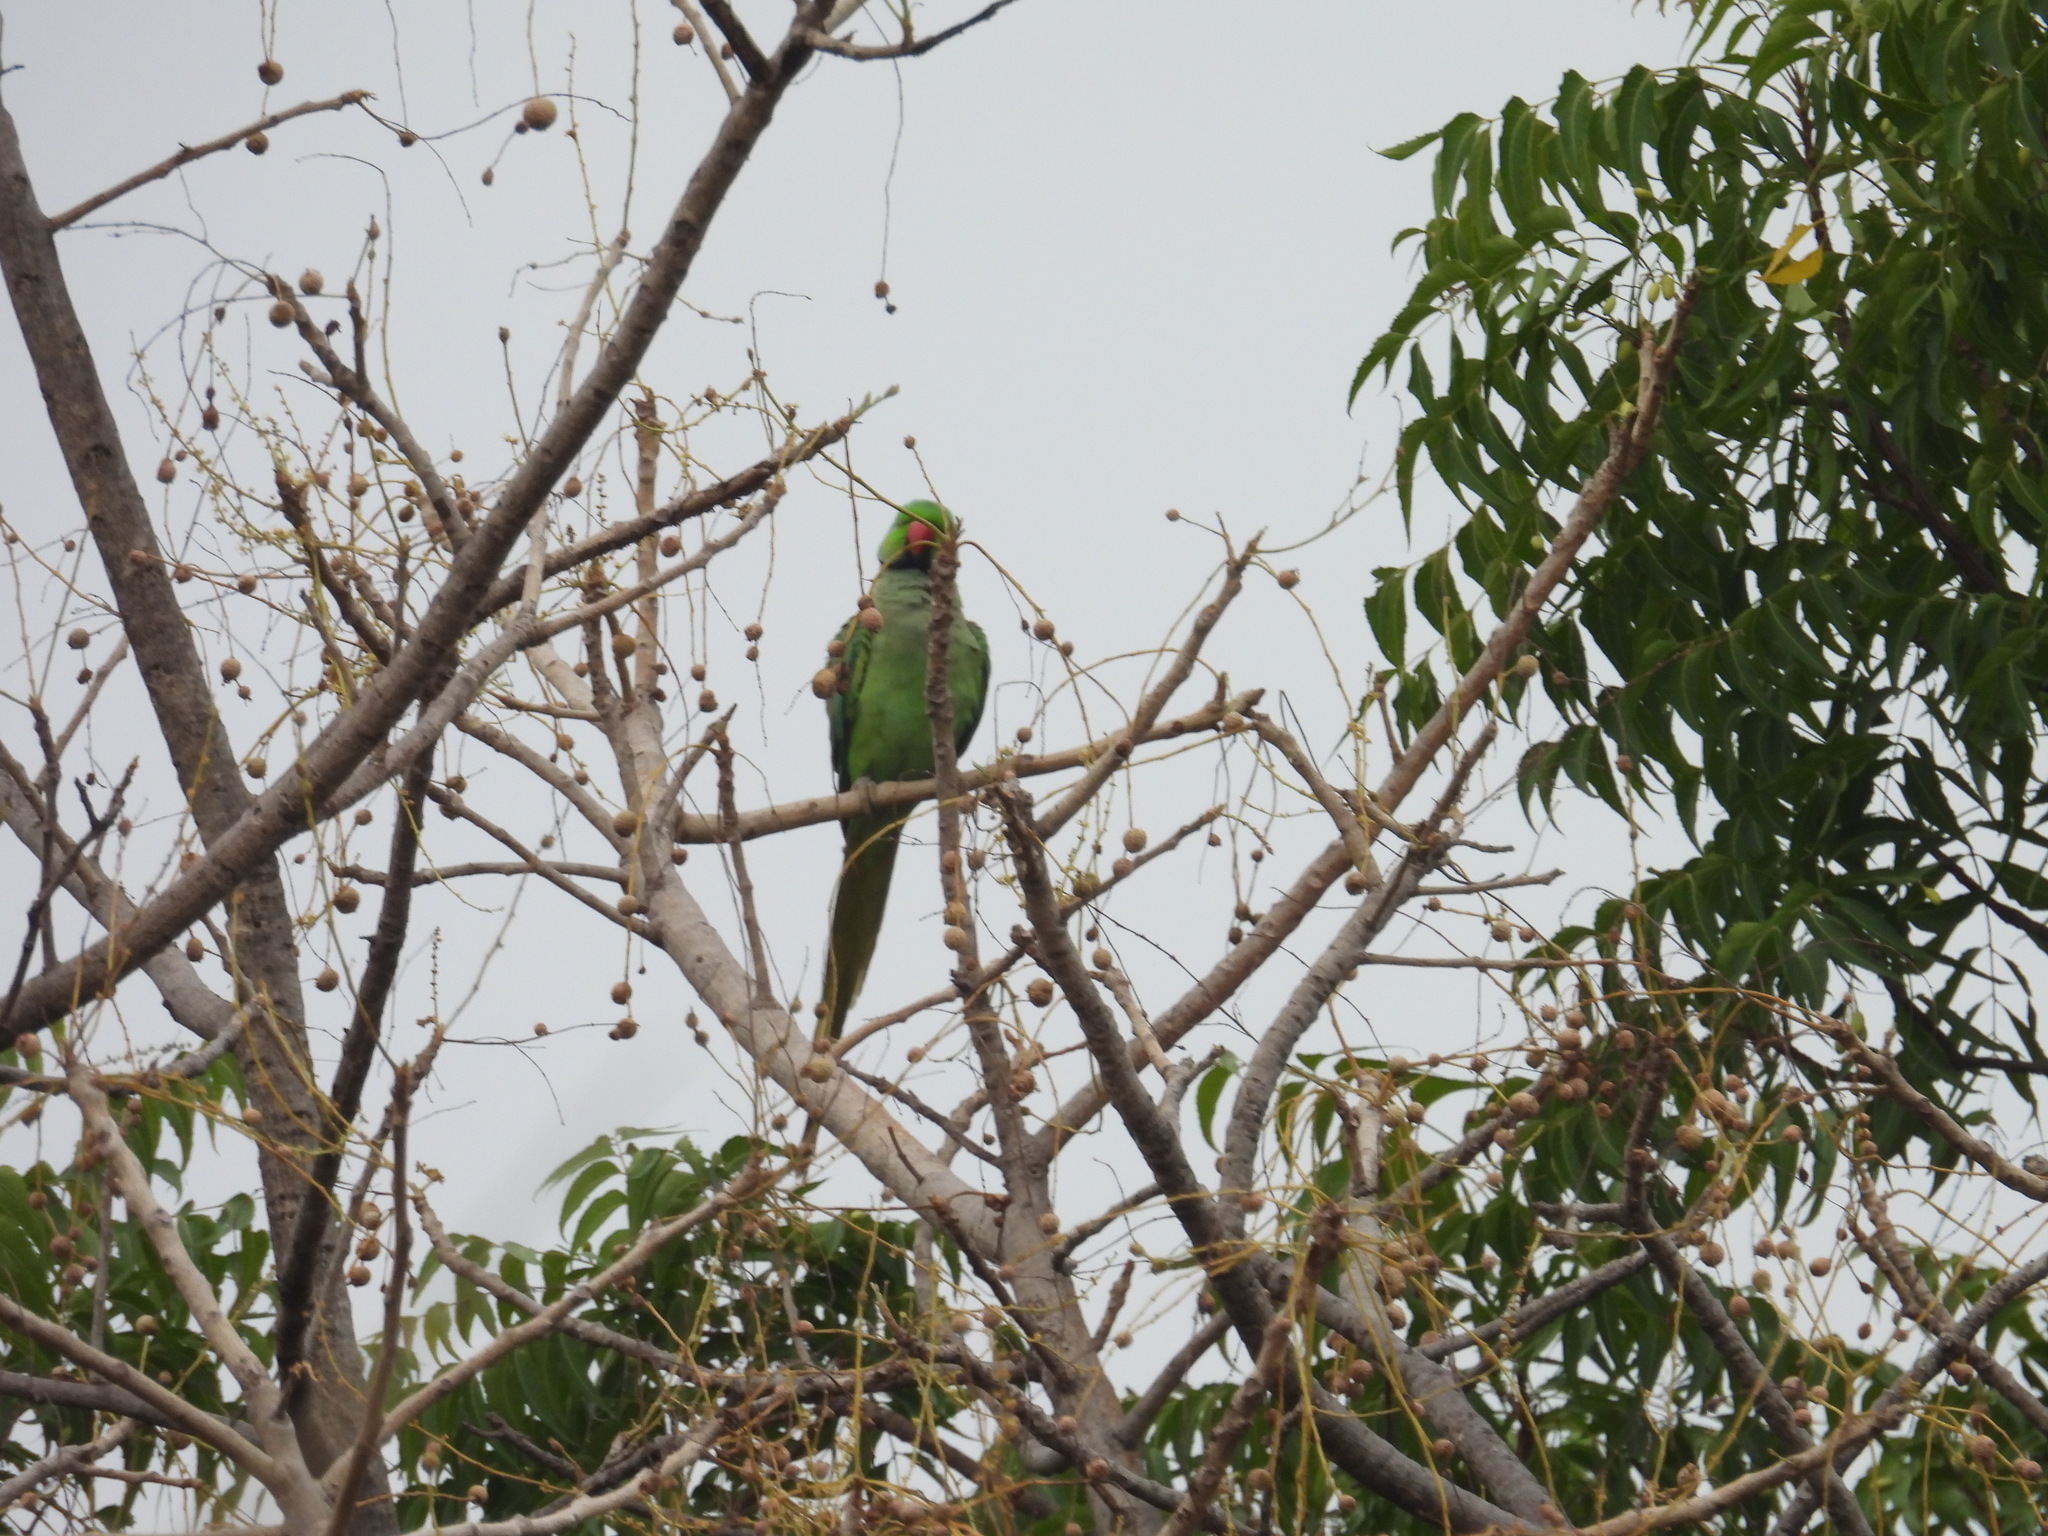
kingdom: Animalia
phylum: Chordata
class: Aves
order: Psittaciformes
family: Psittacidae
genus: Psittacula
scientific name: Psittacula krameri
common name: Rose-ringed parakeet
